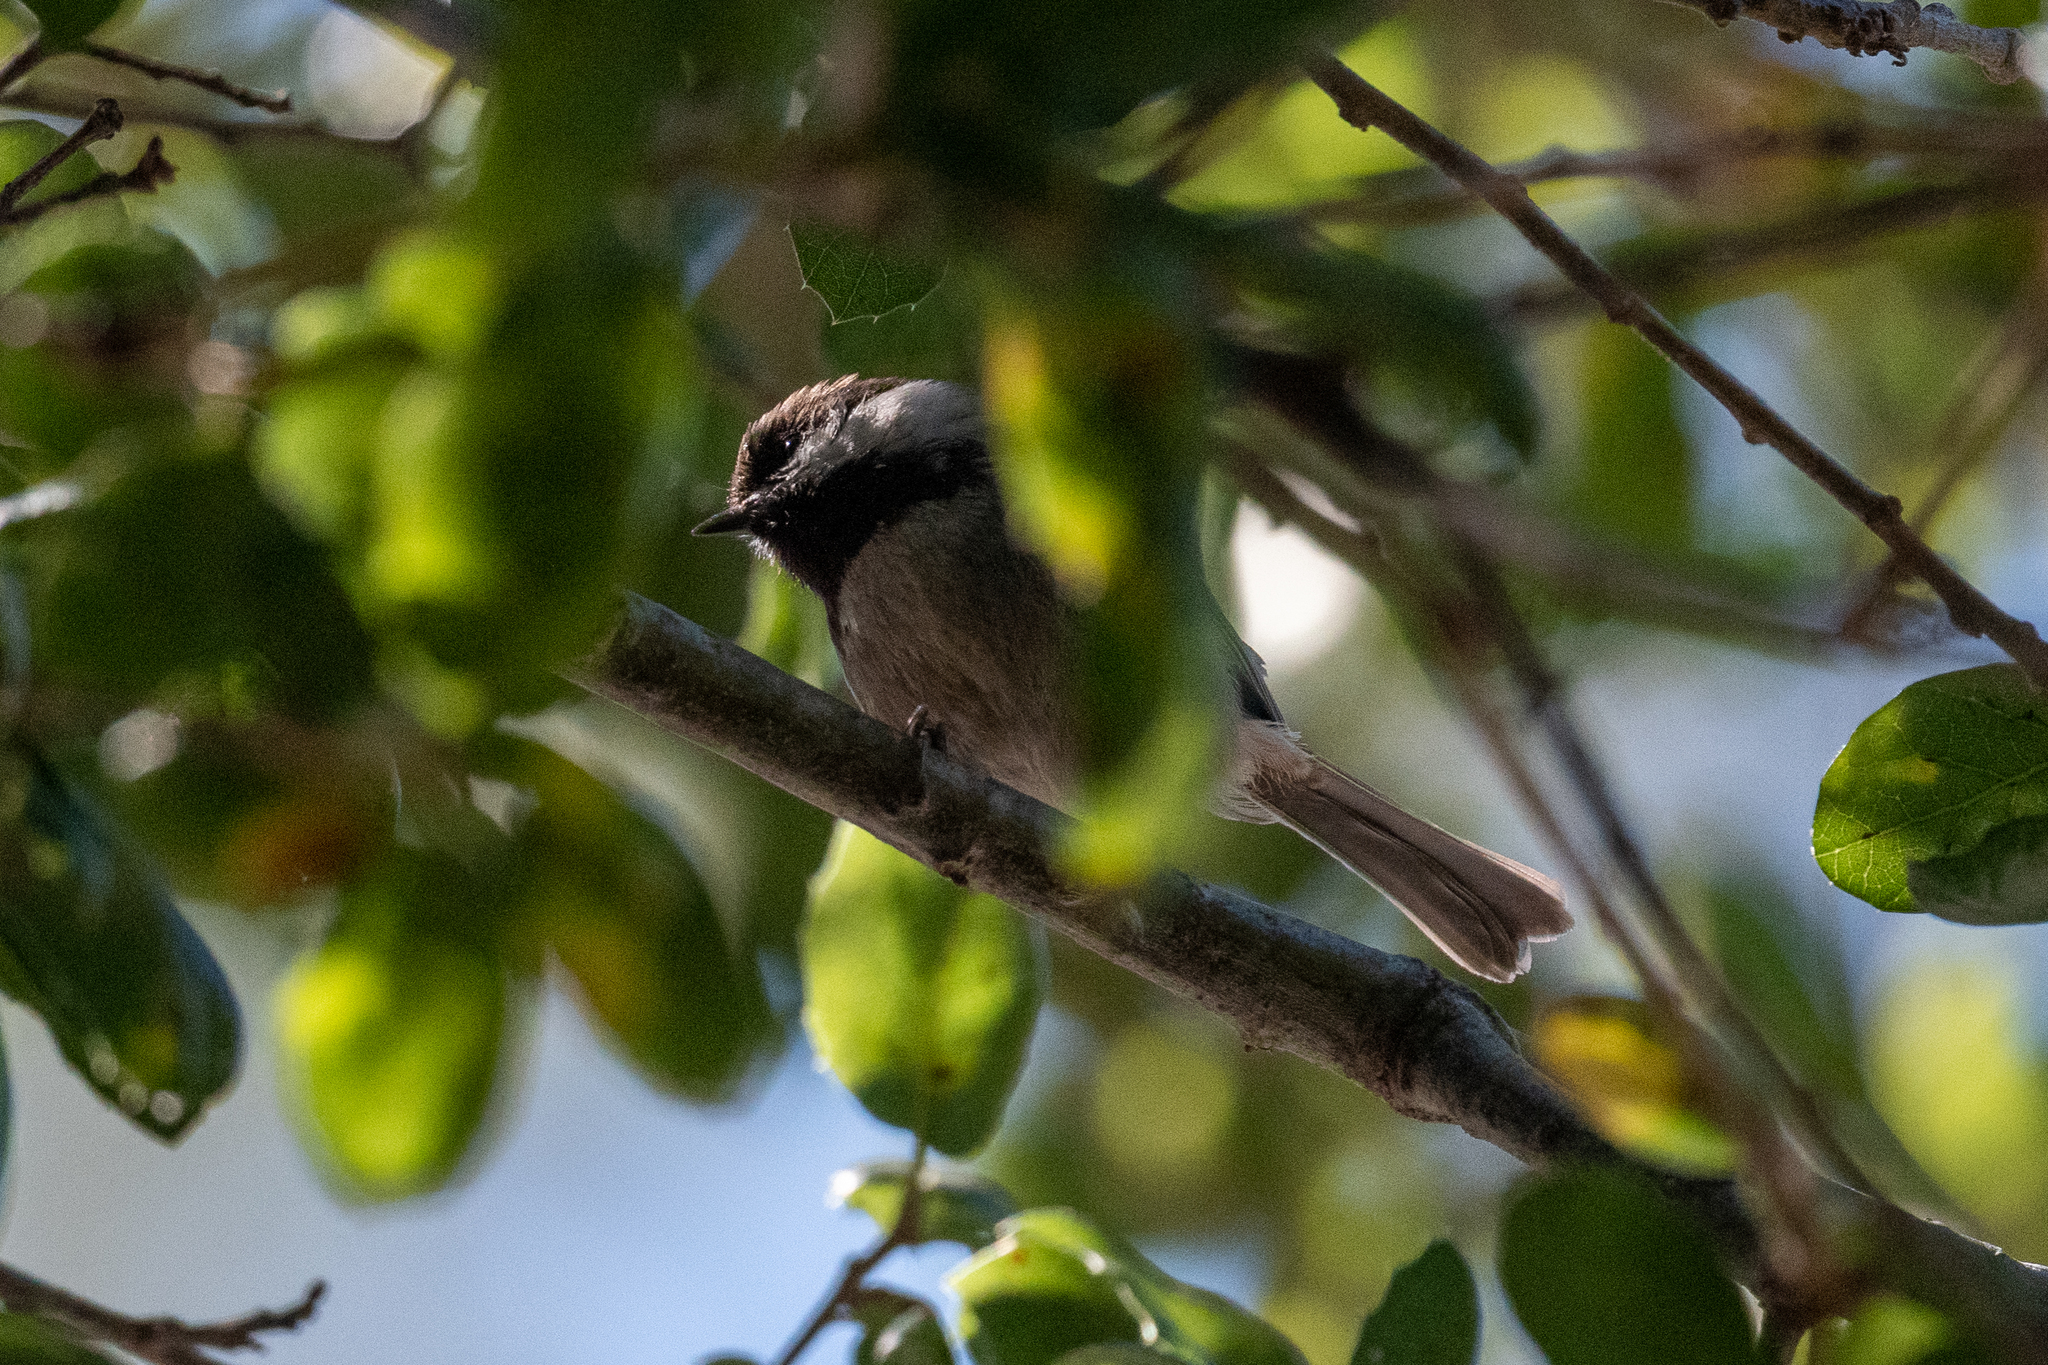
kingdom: Animalia
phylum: Chordata
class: Aves
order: Passeriformes
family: Paridae
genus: Poecile
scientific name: Poecile rufescens
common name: Chestnut-backed chickadee
